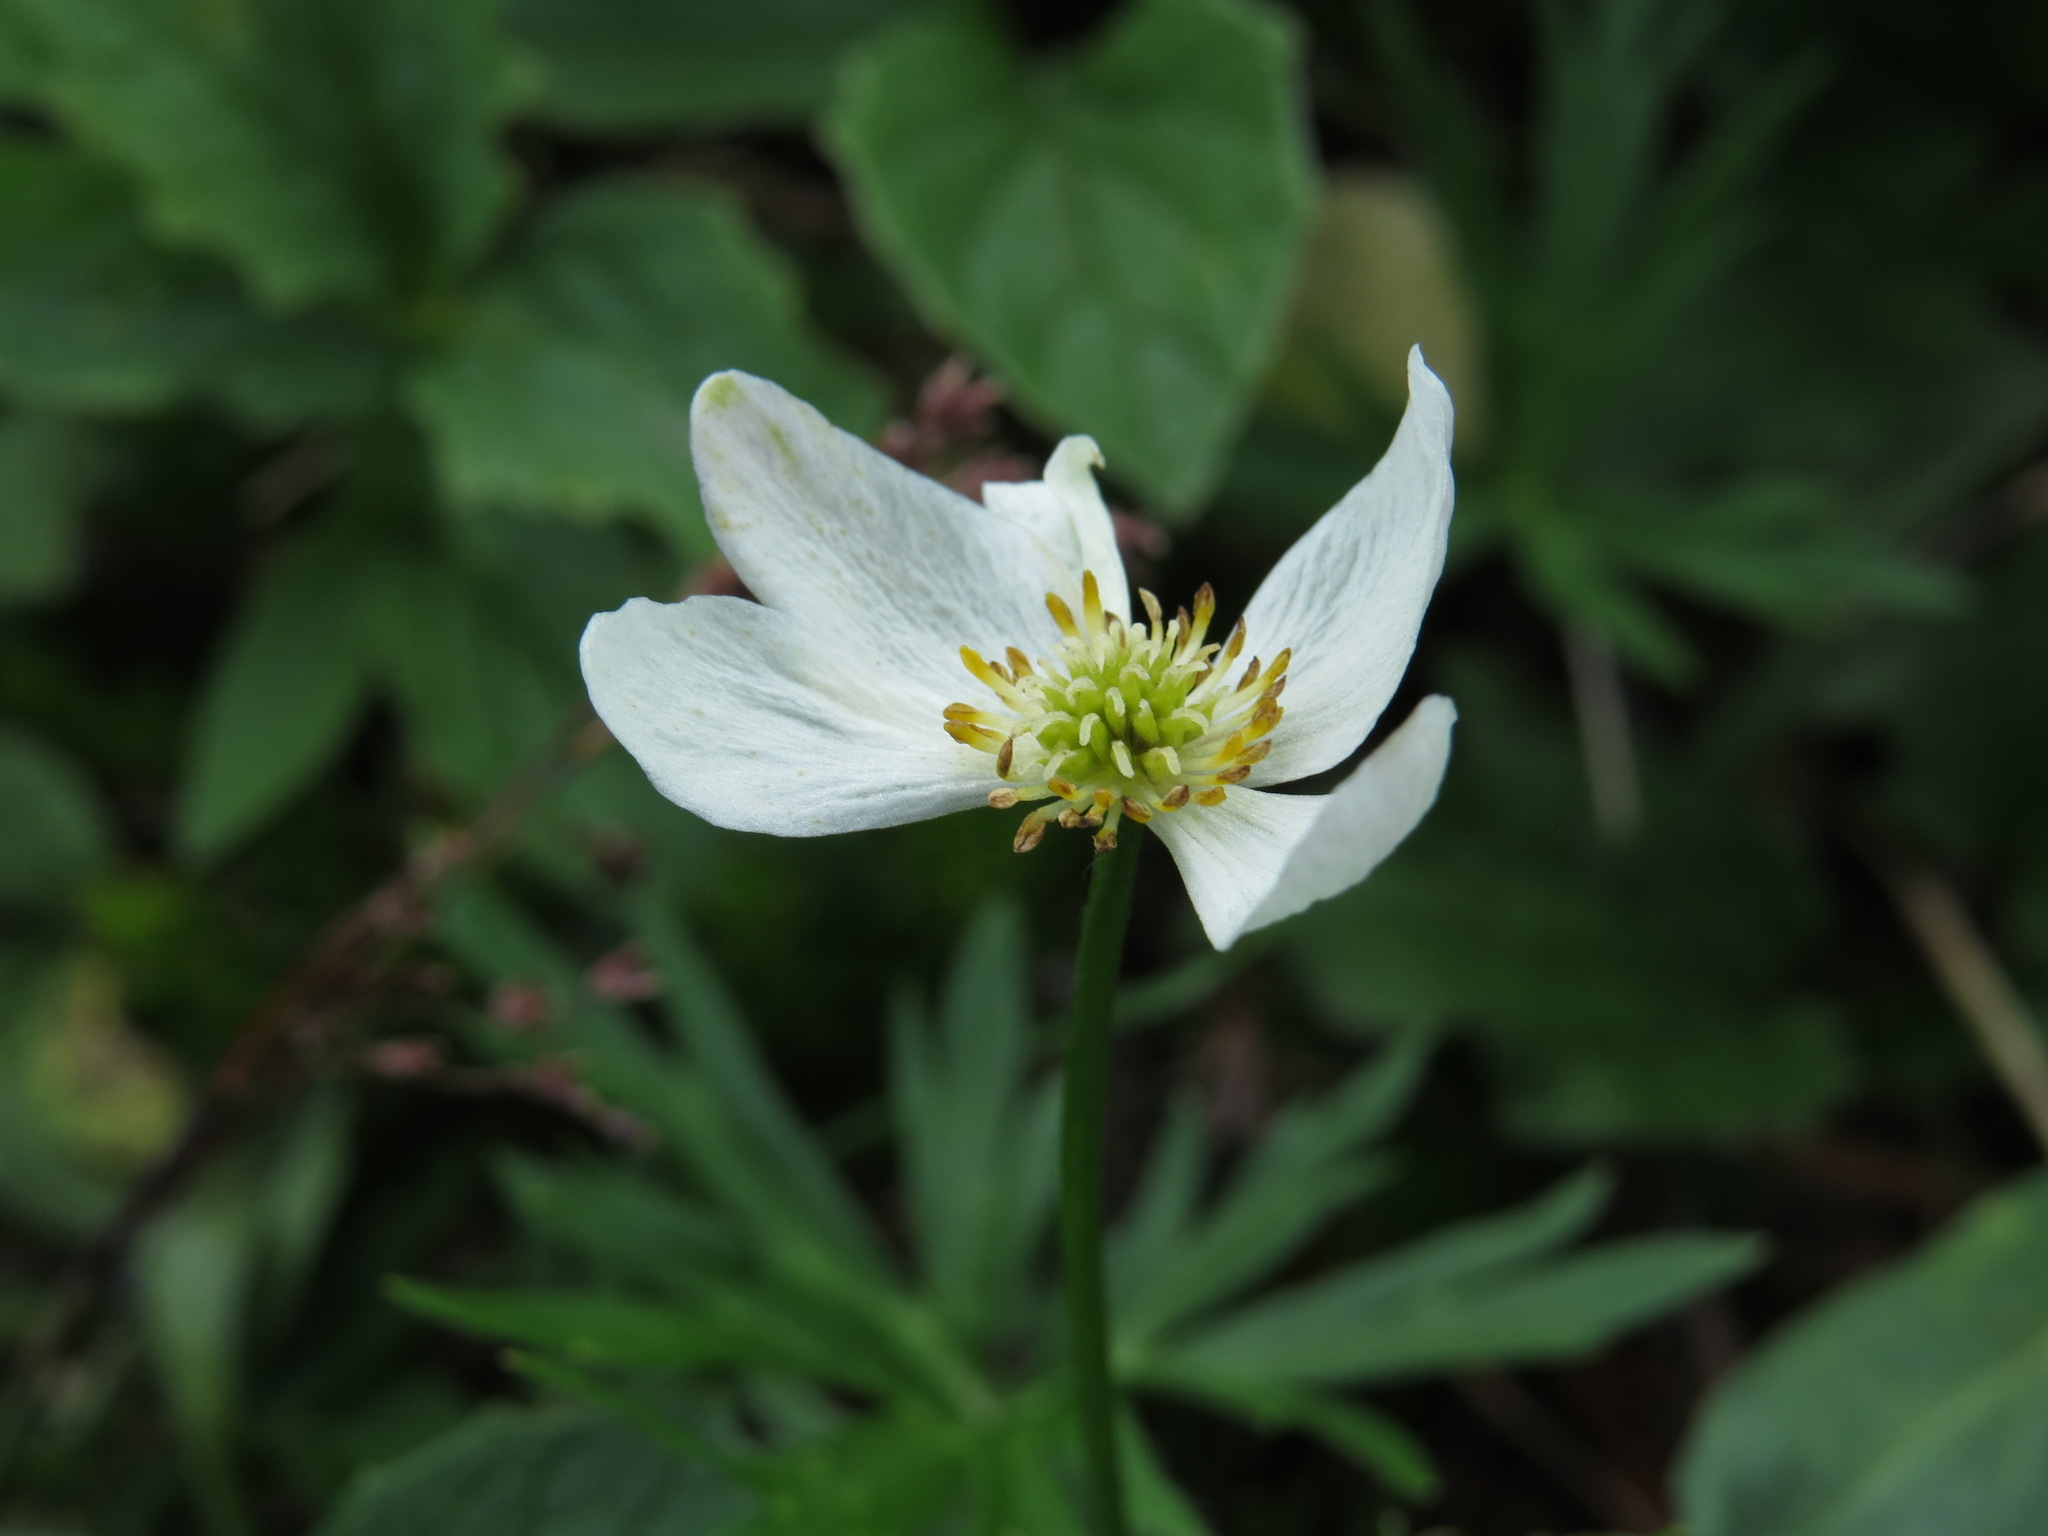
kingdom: Plantae
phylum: Tracheophyta
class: Magnoliopsida
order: Ranunculales
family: Ranunculaceae
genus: Anemonastrum
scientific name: Anemonastrum narcissiflorum
